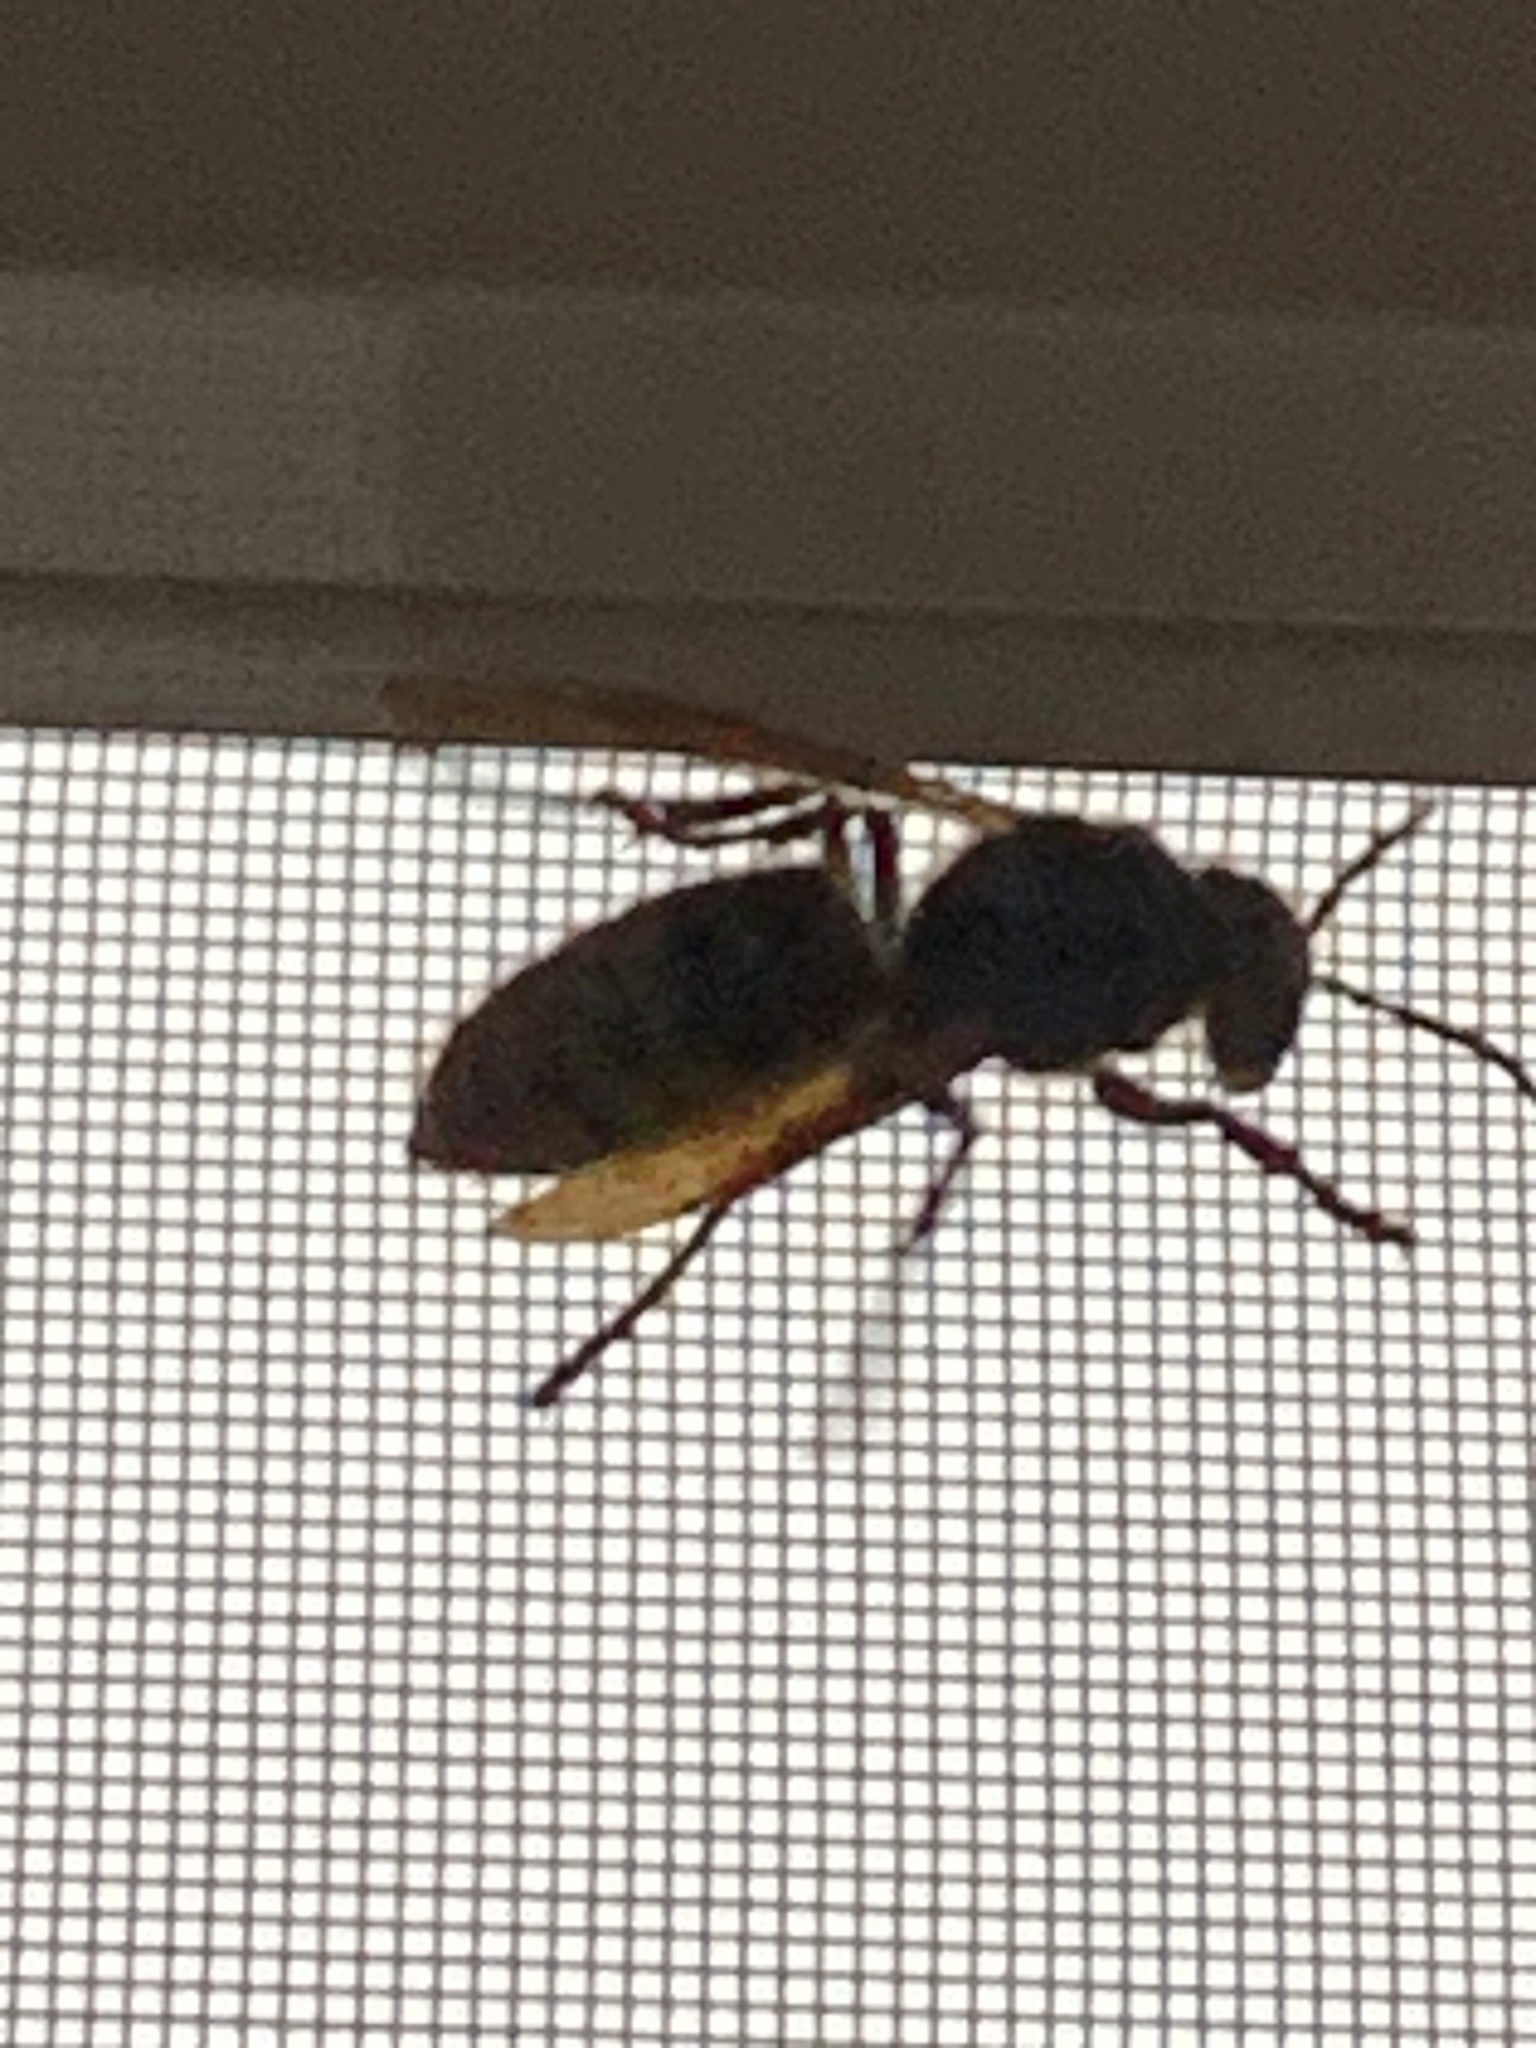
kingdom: Animalia
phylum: Arthropoda
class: Insecta
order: Hymenoptera
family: Vespidae
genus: Vespa
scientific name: Vespa crabro
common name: Hornet
